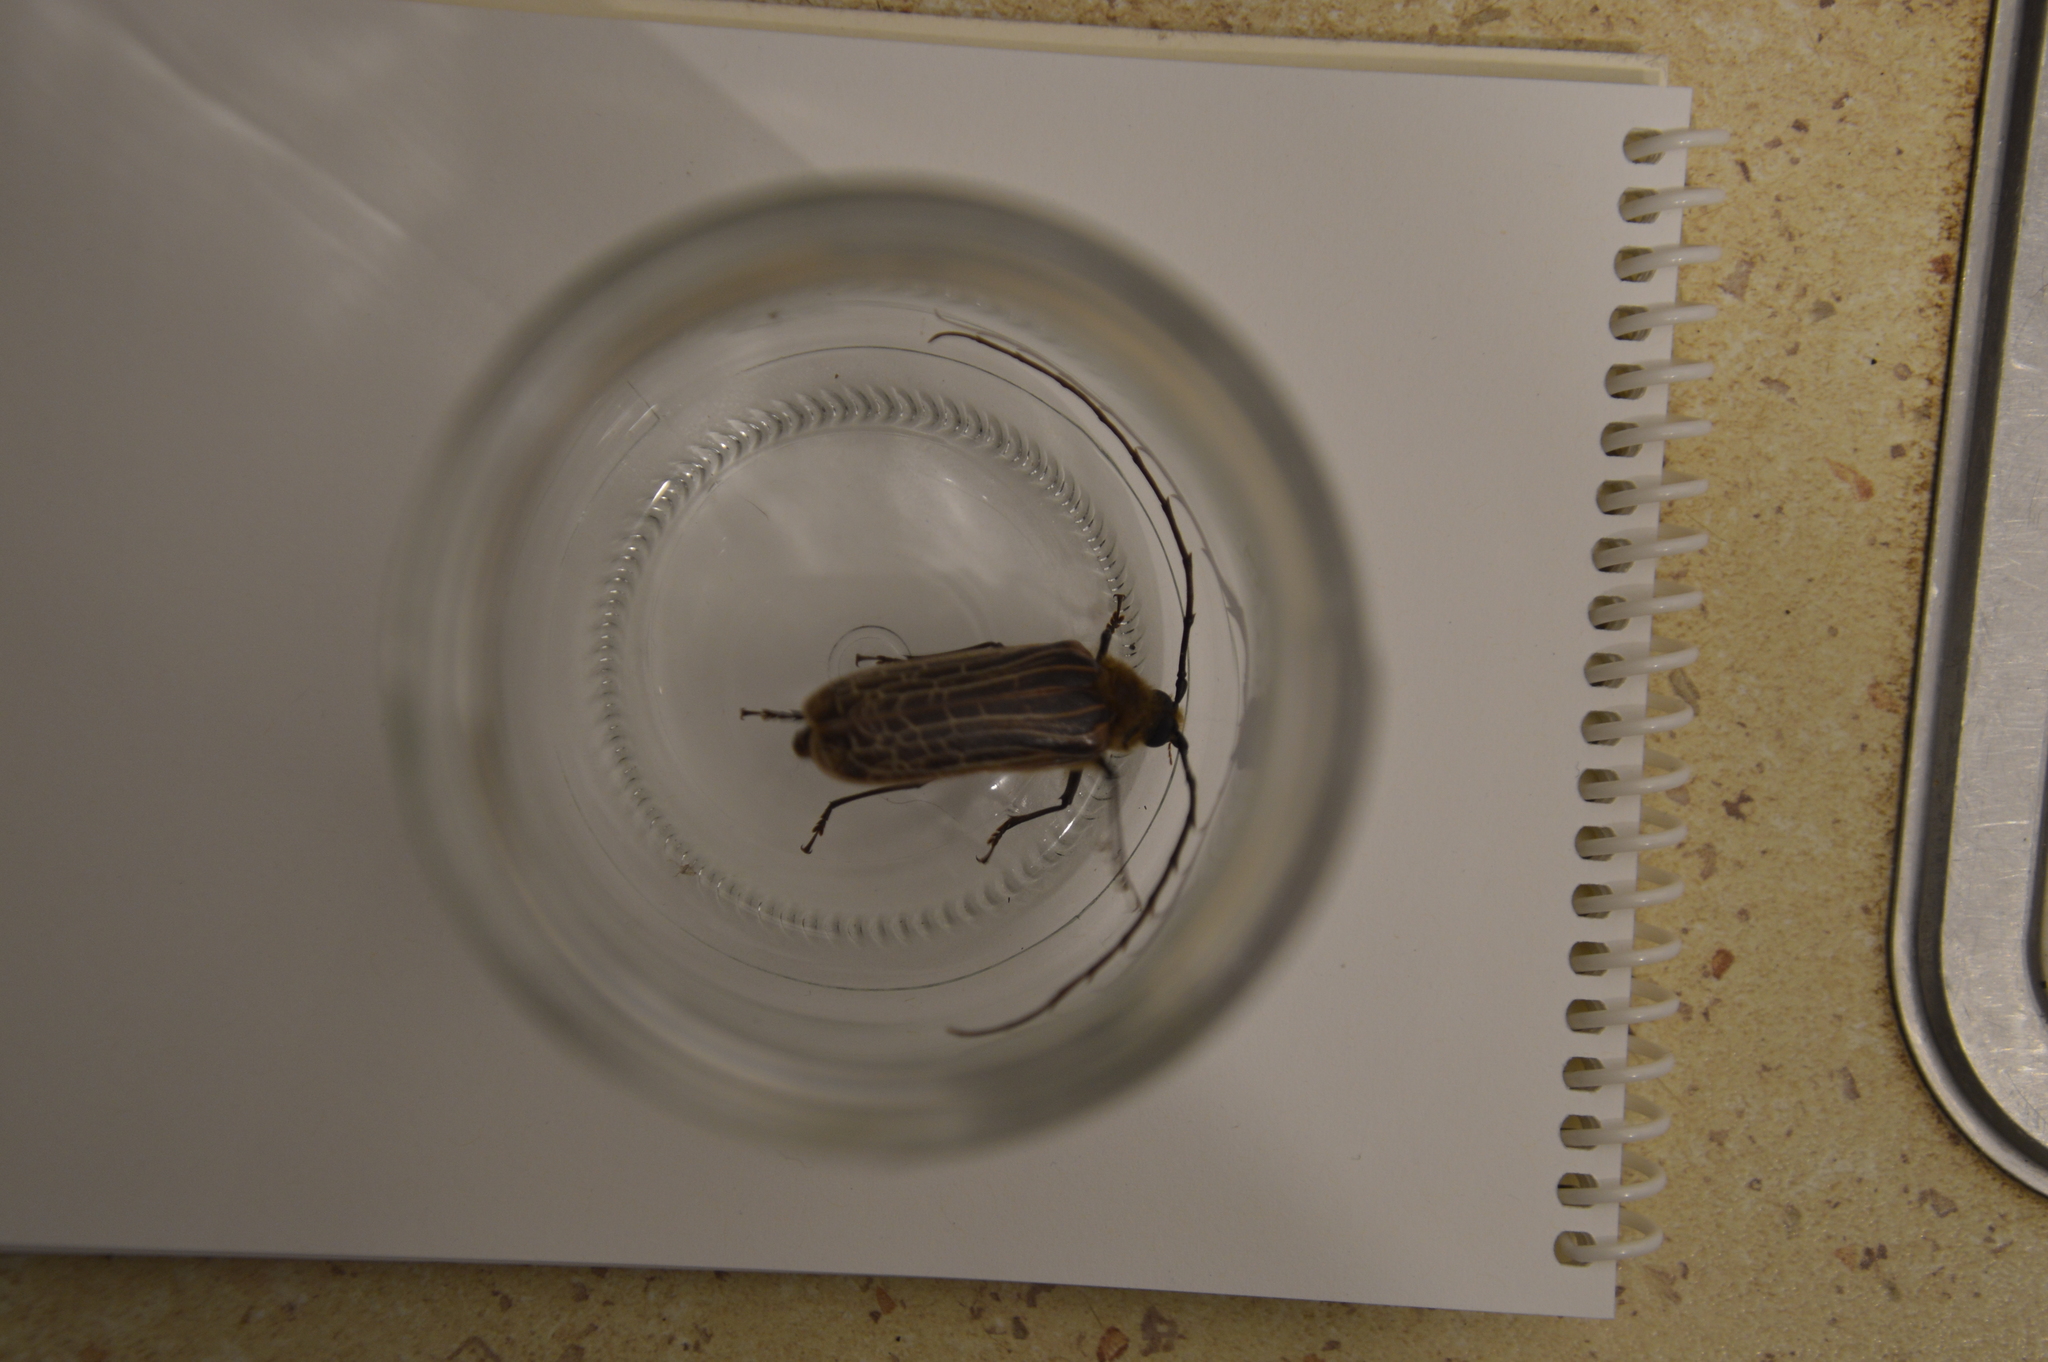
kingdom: Animalia
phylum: Arthropoda
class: Insecta
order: Coleoptera
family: Cerambycidae
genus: Prionoplus
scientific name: Prionoplus reticularis
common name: Huhu beetle
